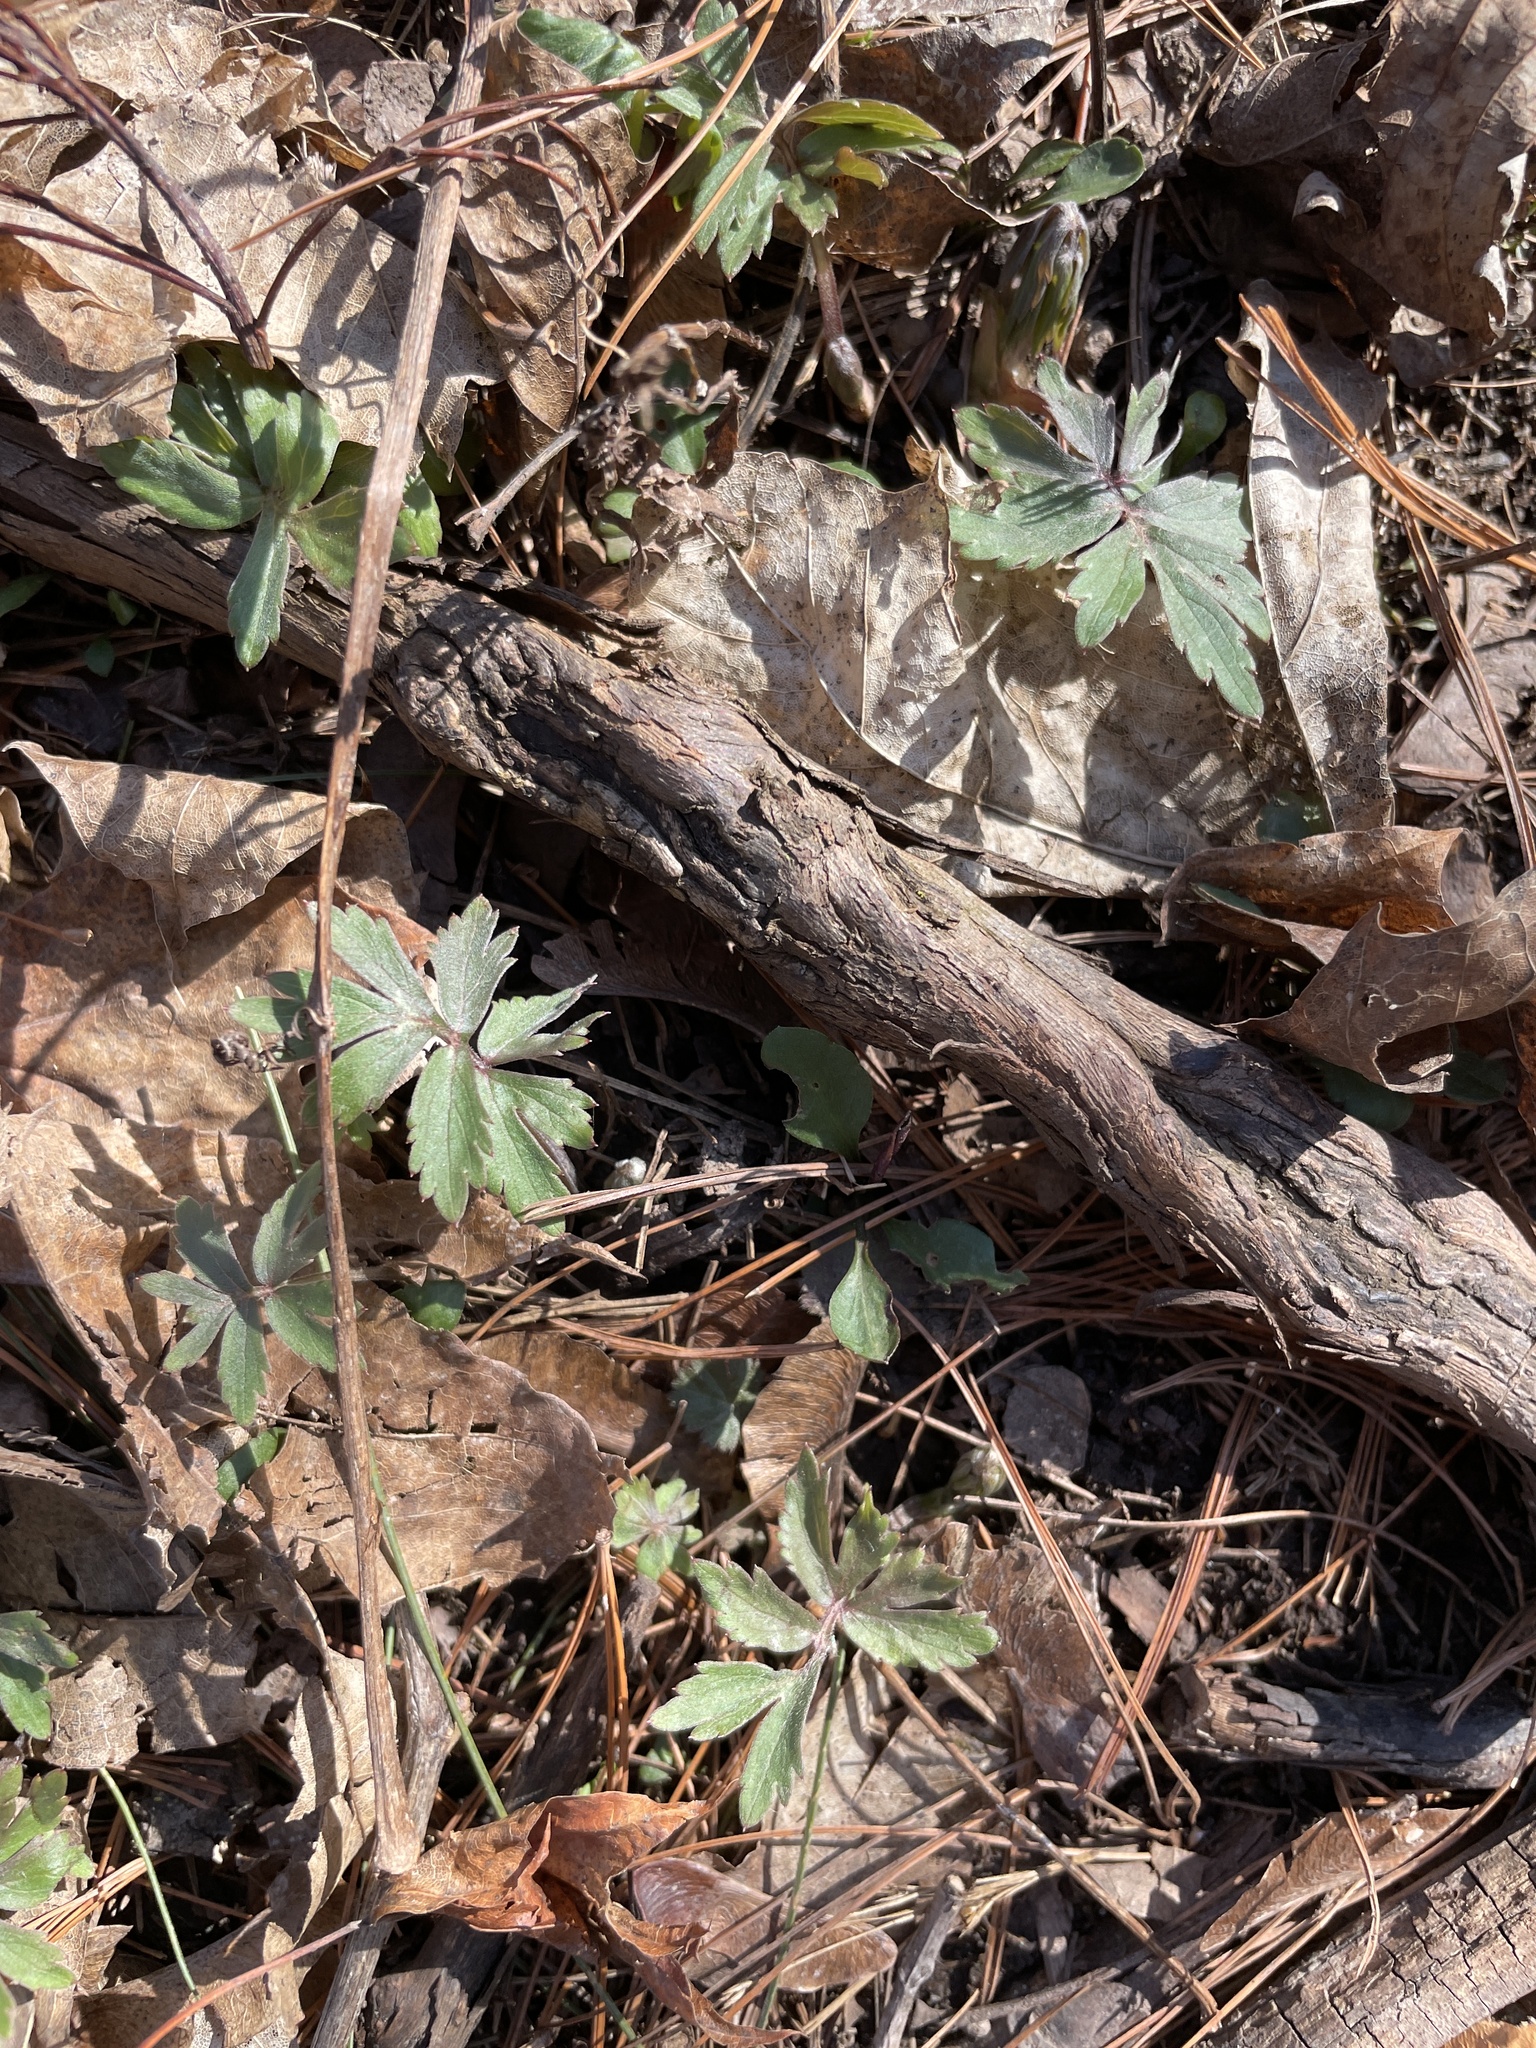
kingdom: Plantae
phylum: Tracheophyta
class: Magnoliopsida
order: Boraginales
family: Hydrophyllaceae
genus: Hydrophyllum
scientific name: Hydrophyllum virginianum
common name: Virginia waterleaf
